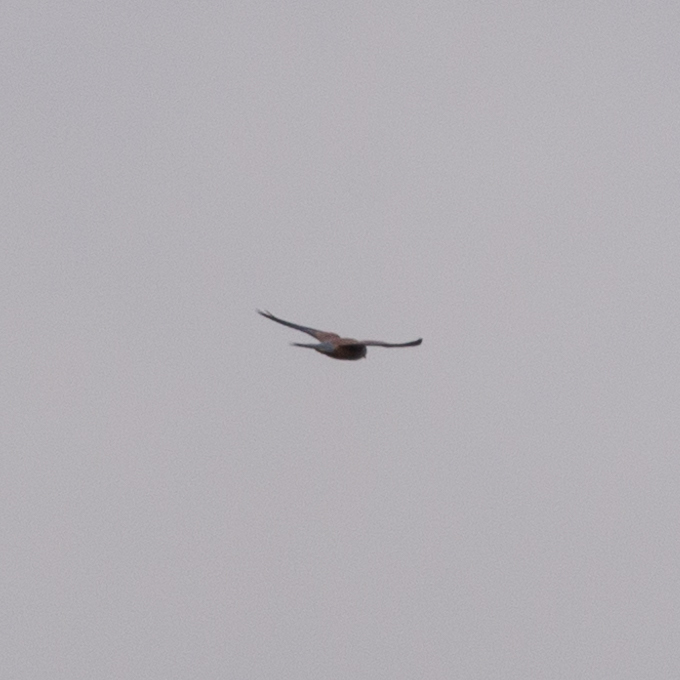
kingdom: Animalia
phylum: Chordata
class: Aves
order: Falconiformes
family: Falconidae
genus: Falco
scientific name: Falco tinnunculus
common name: Common kestrel
